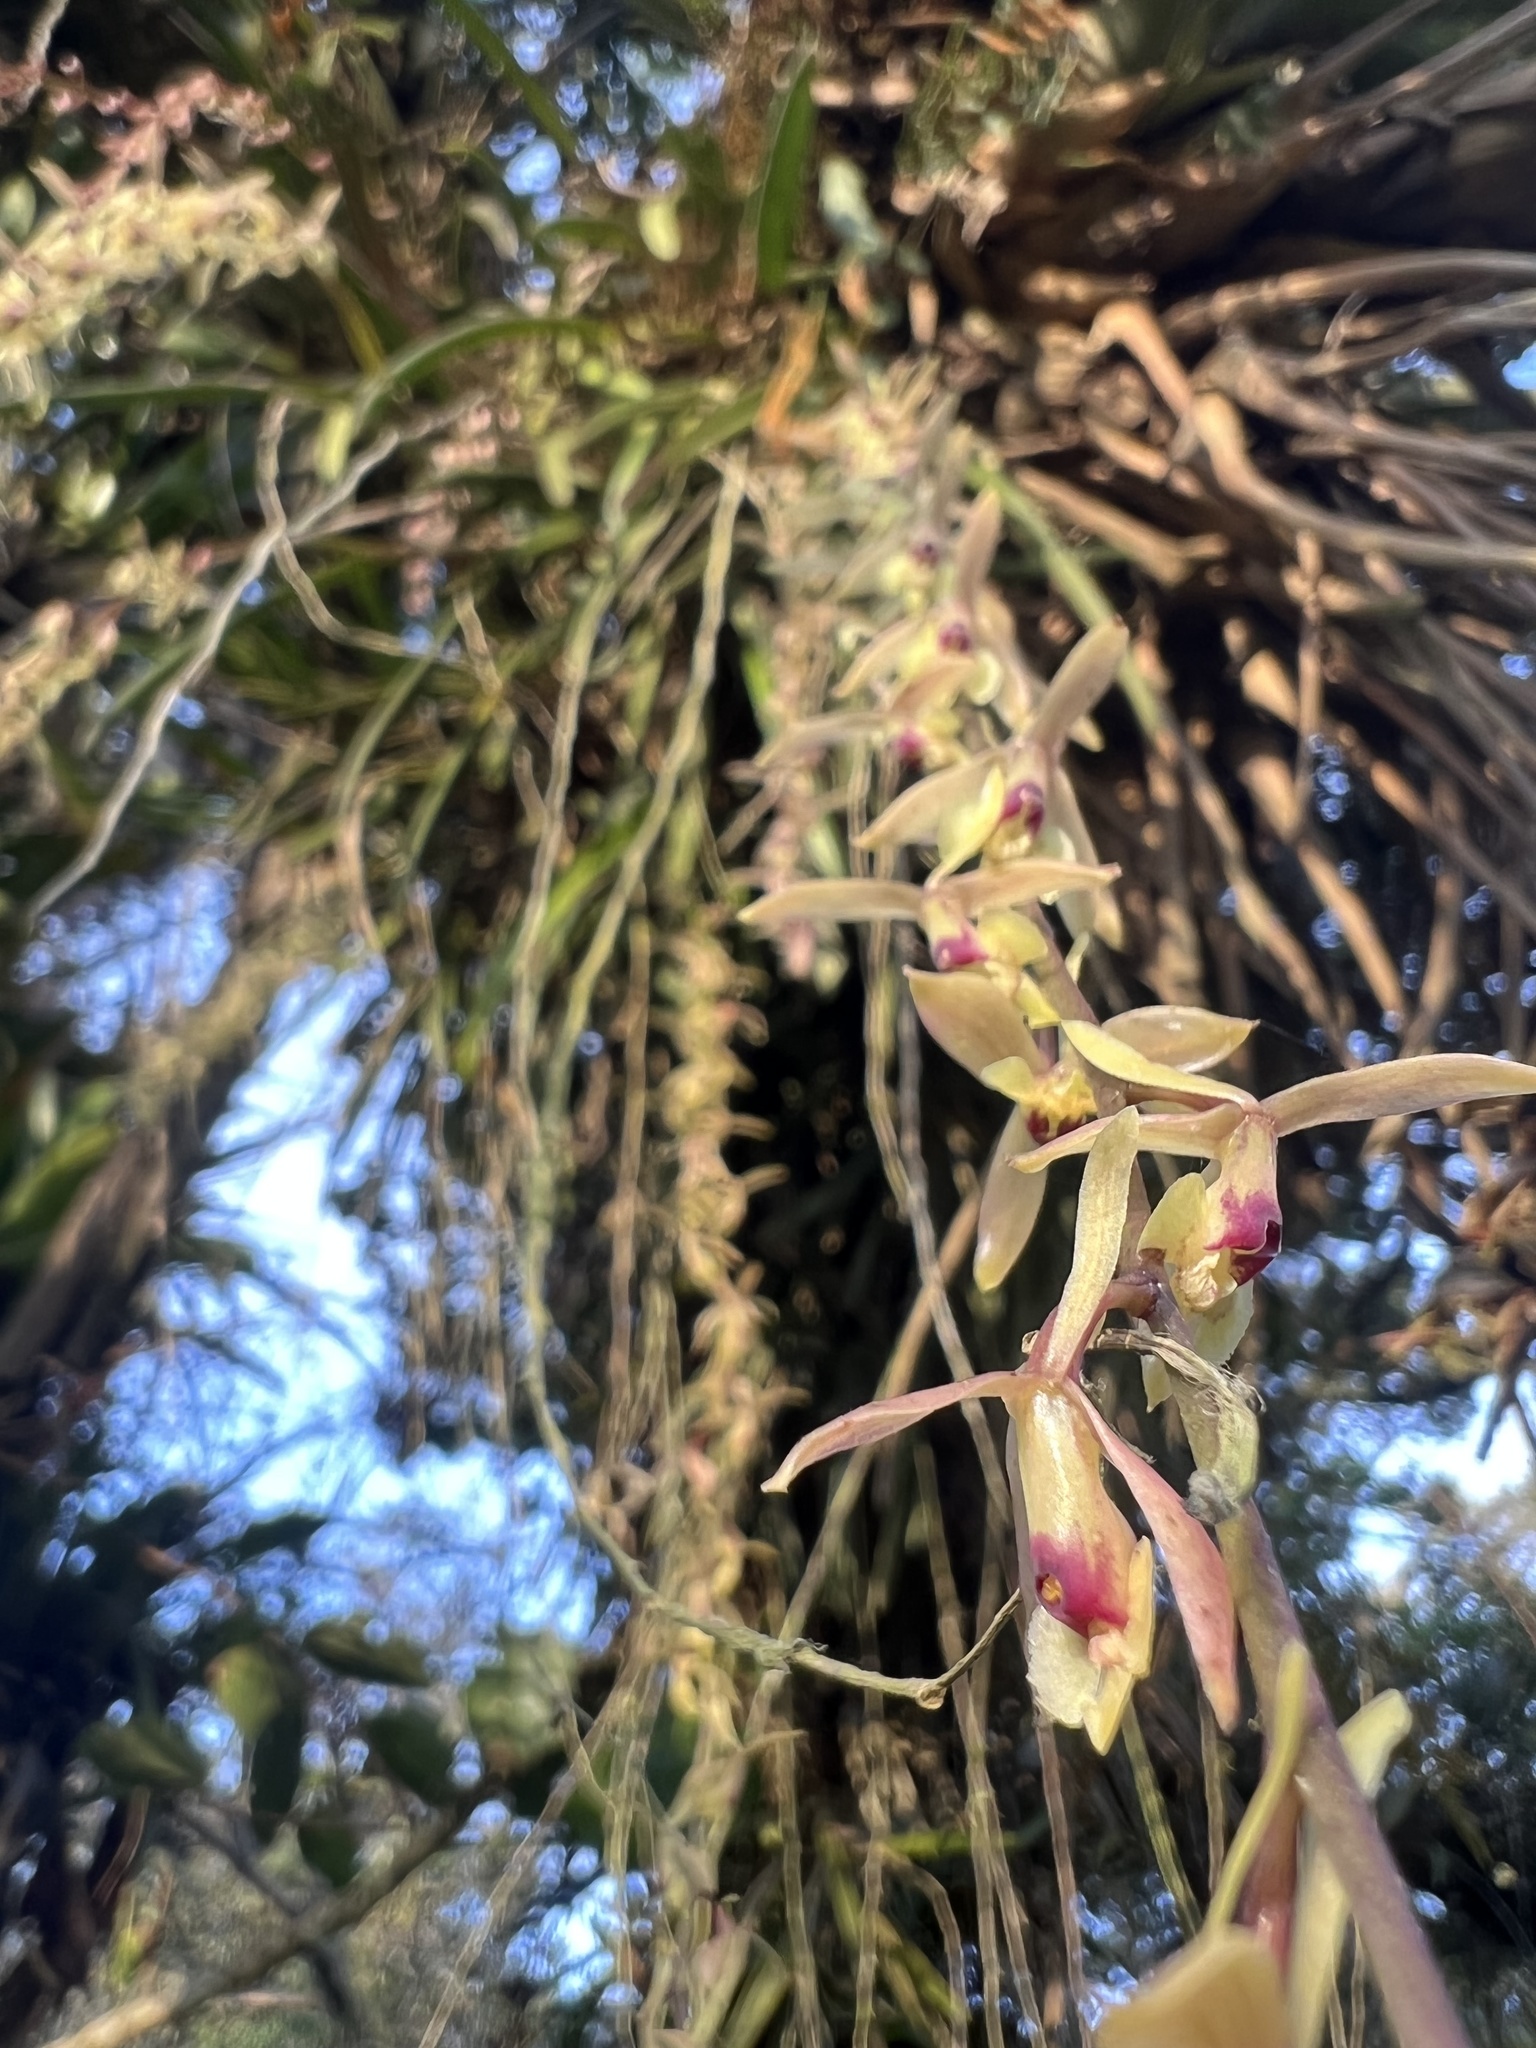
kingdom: Plantae
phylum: Tracheophyta
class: Liliopsida
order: Asparagales
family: Orchidaceae
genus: Epidendrum
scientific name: Epidendrum moritzii
